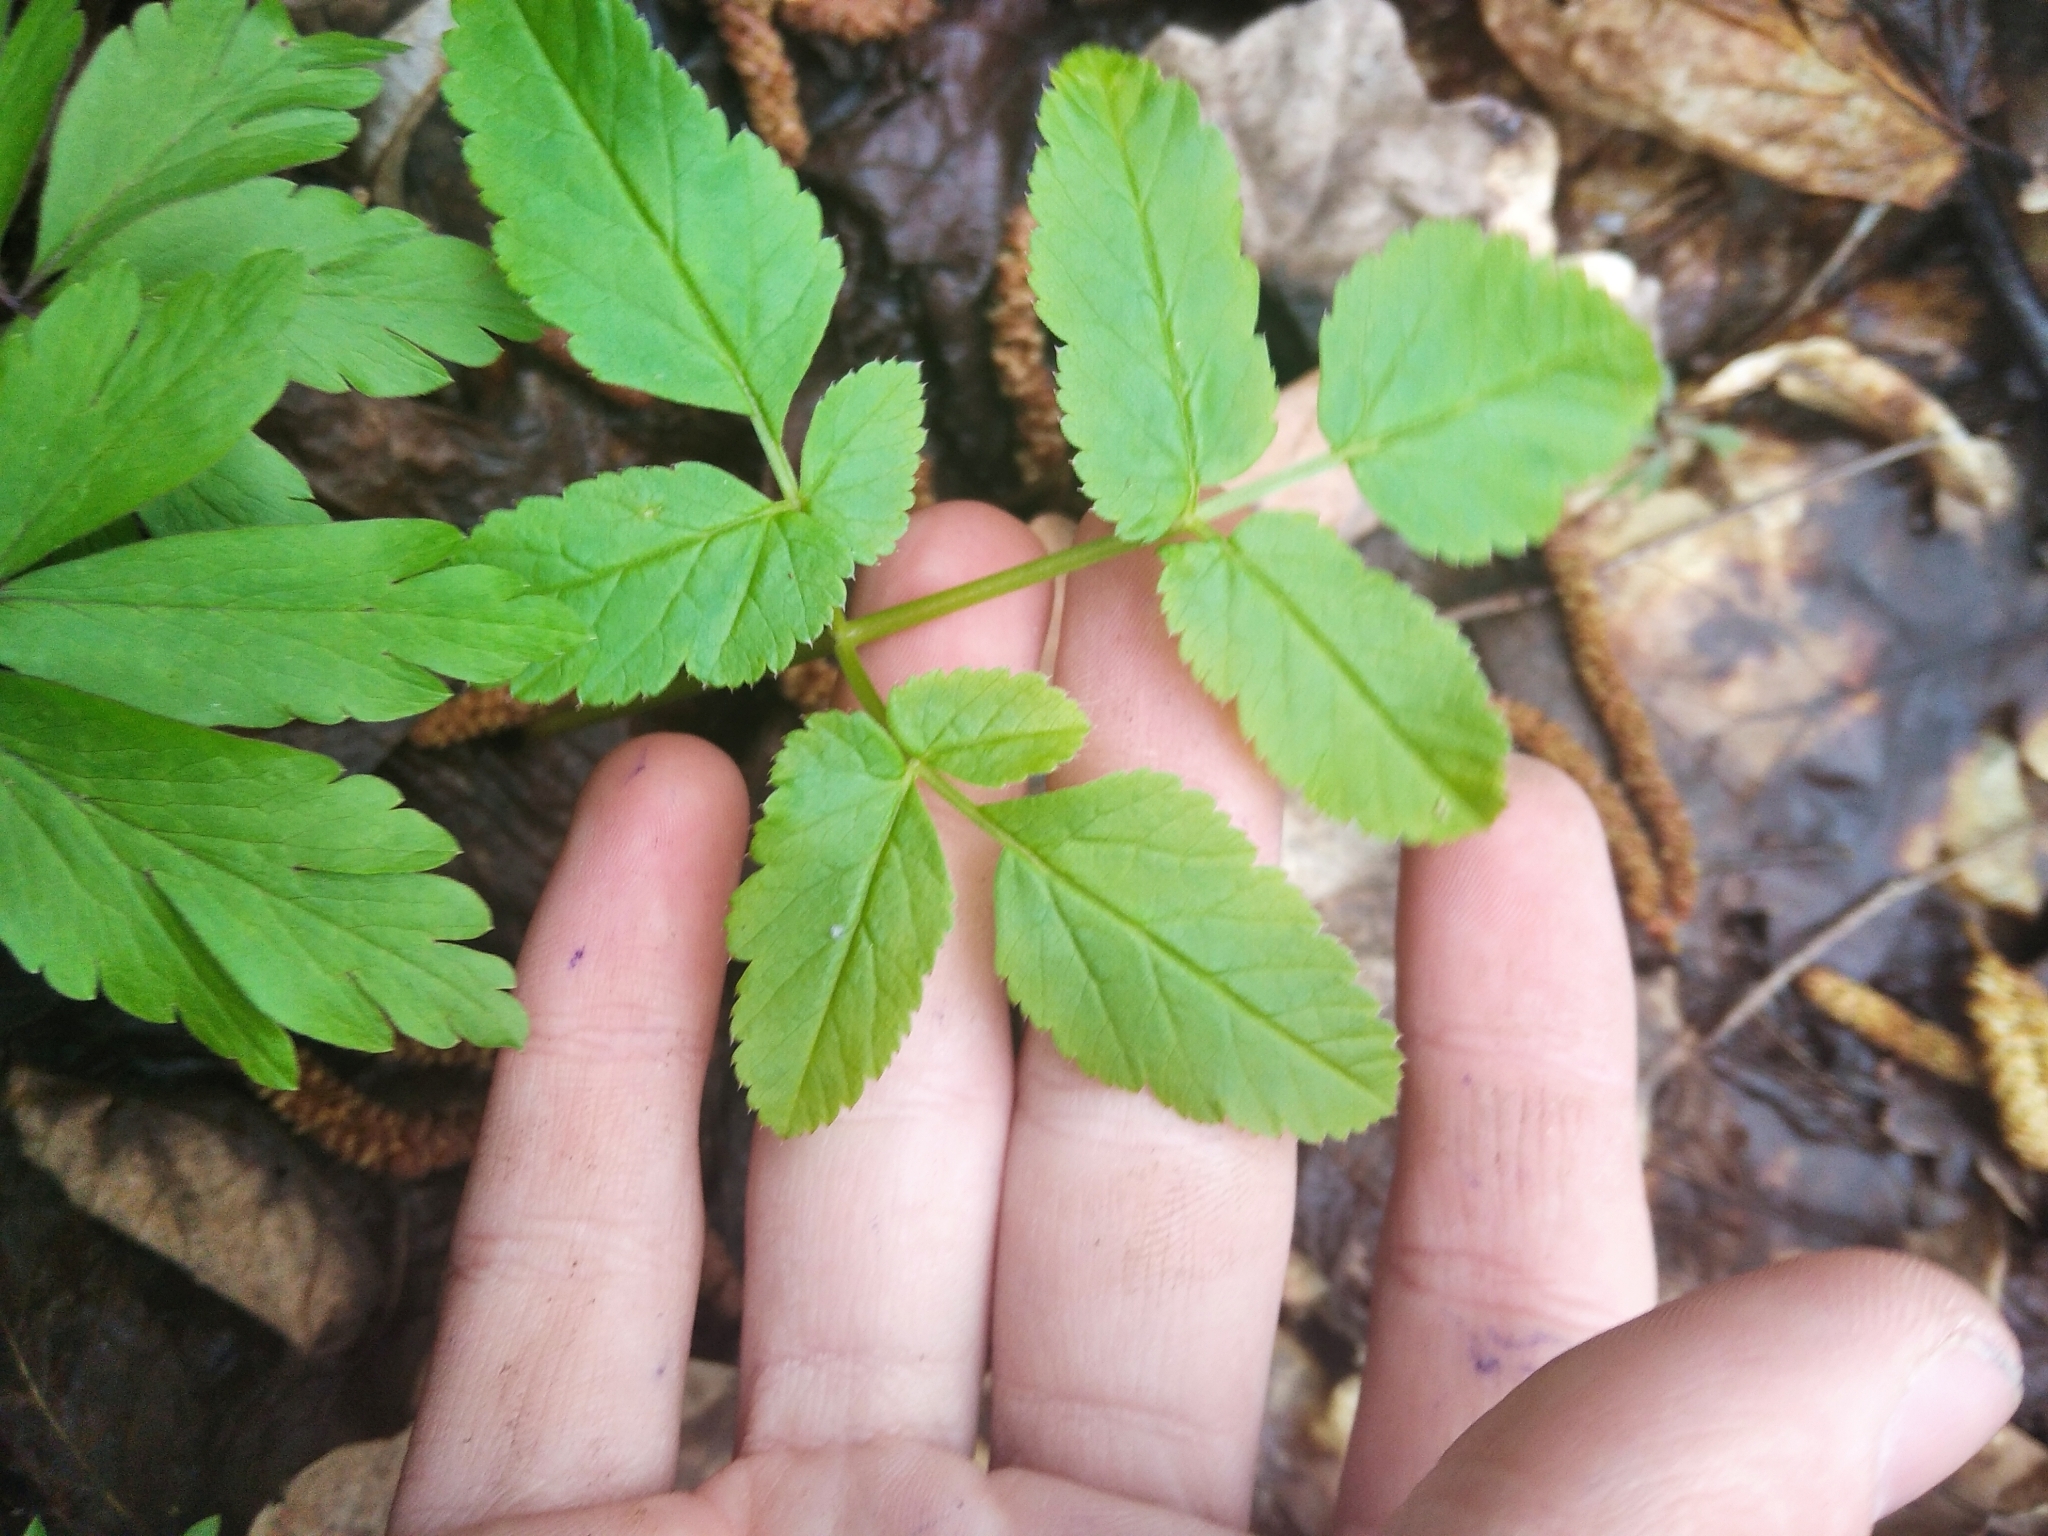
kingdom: Plantae
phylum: Tracheophyta
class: Magnoliopsida
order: Apiales
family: Apiaceae
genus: Aegopodium
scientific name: Aegopodium podagraria
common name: Ground-elder
